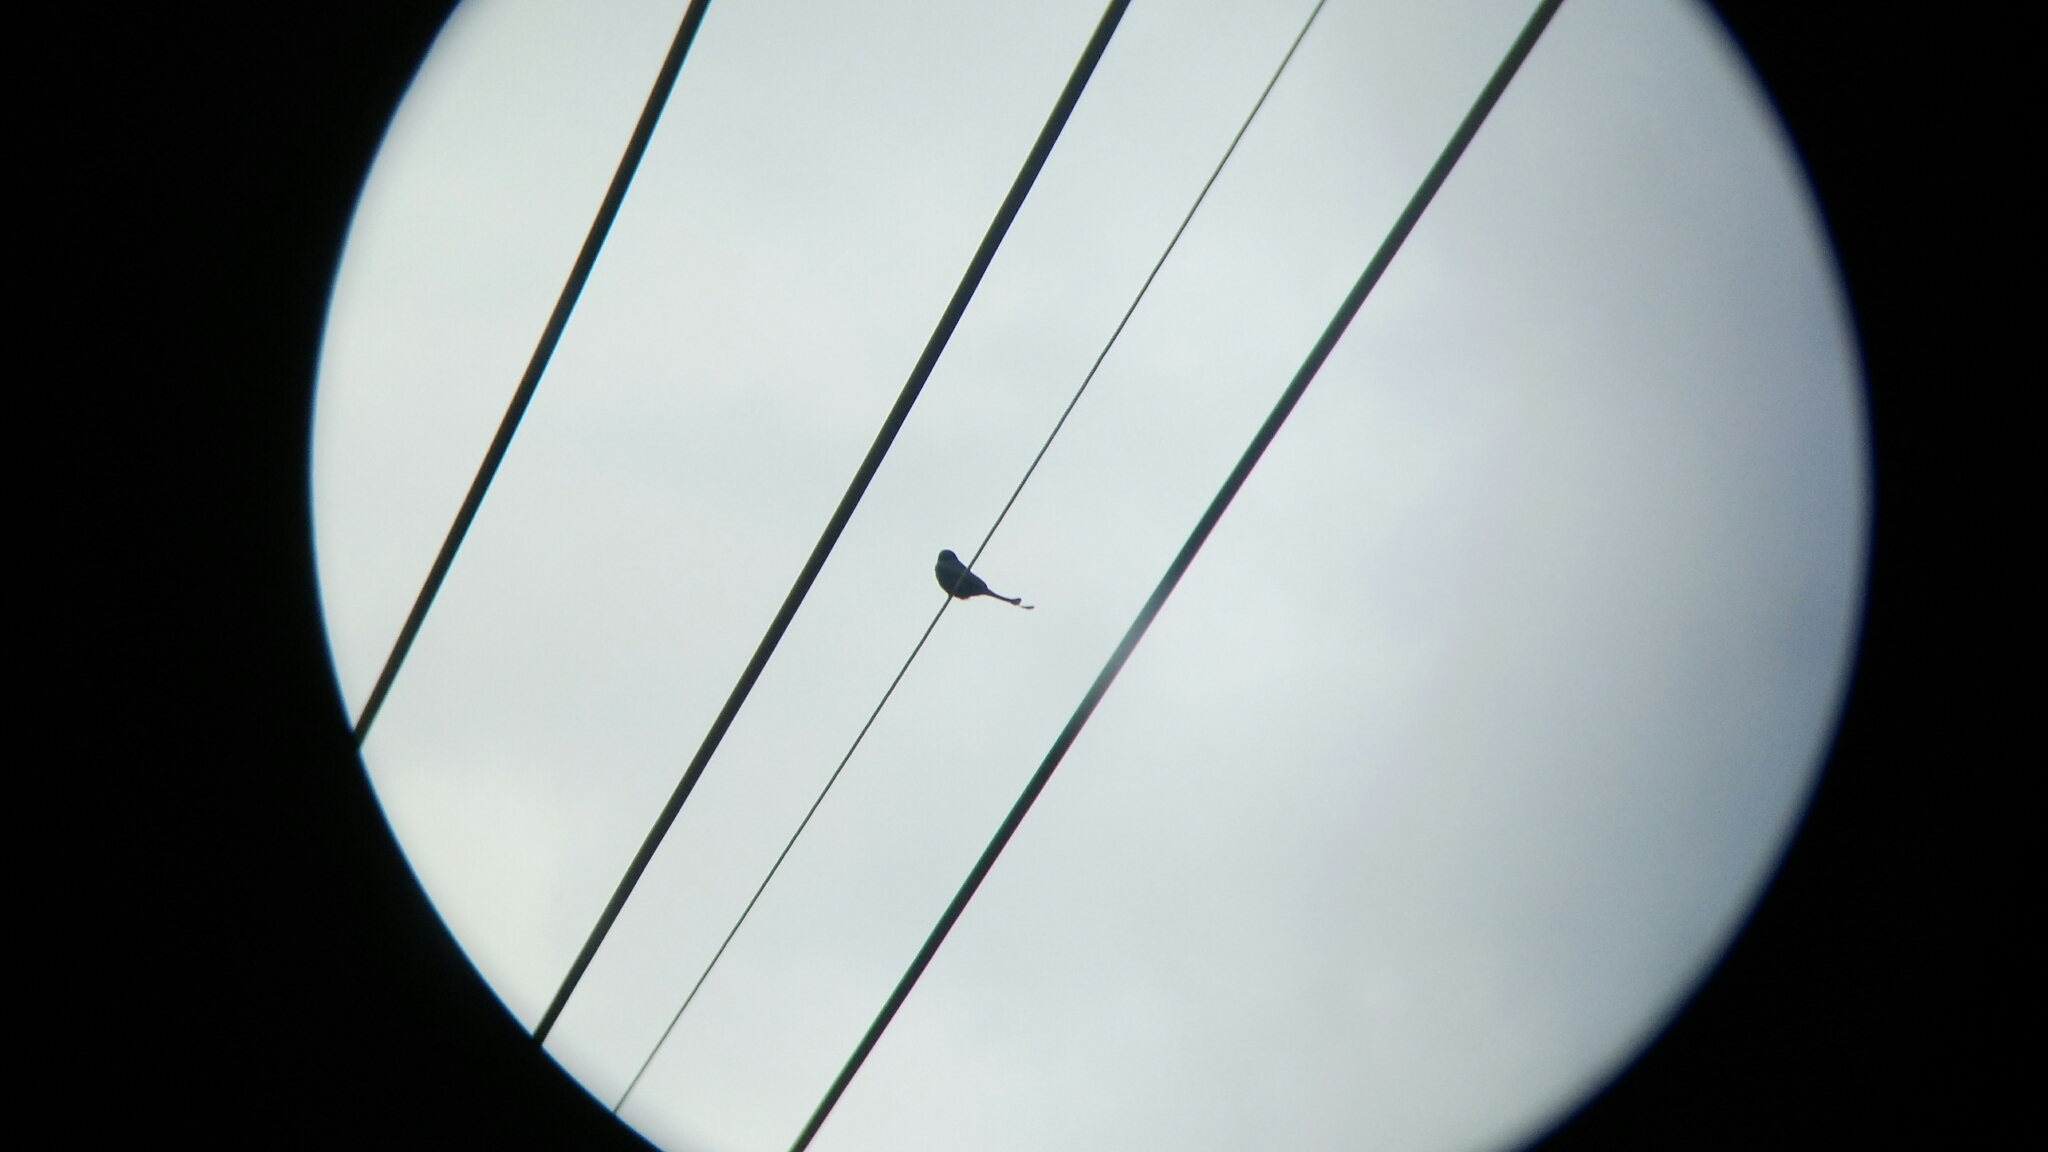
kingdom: Animalia
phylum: Chordata
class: Aves
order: Passeriformes
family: Dicruridae
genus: Dicrurus
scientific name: Dicrurus macrocercus
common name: Black drongo
